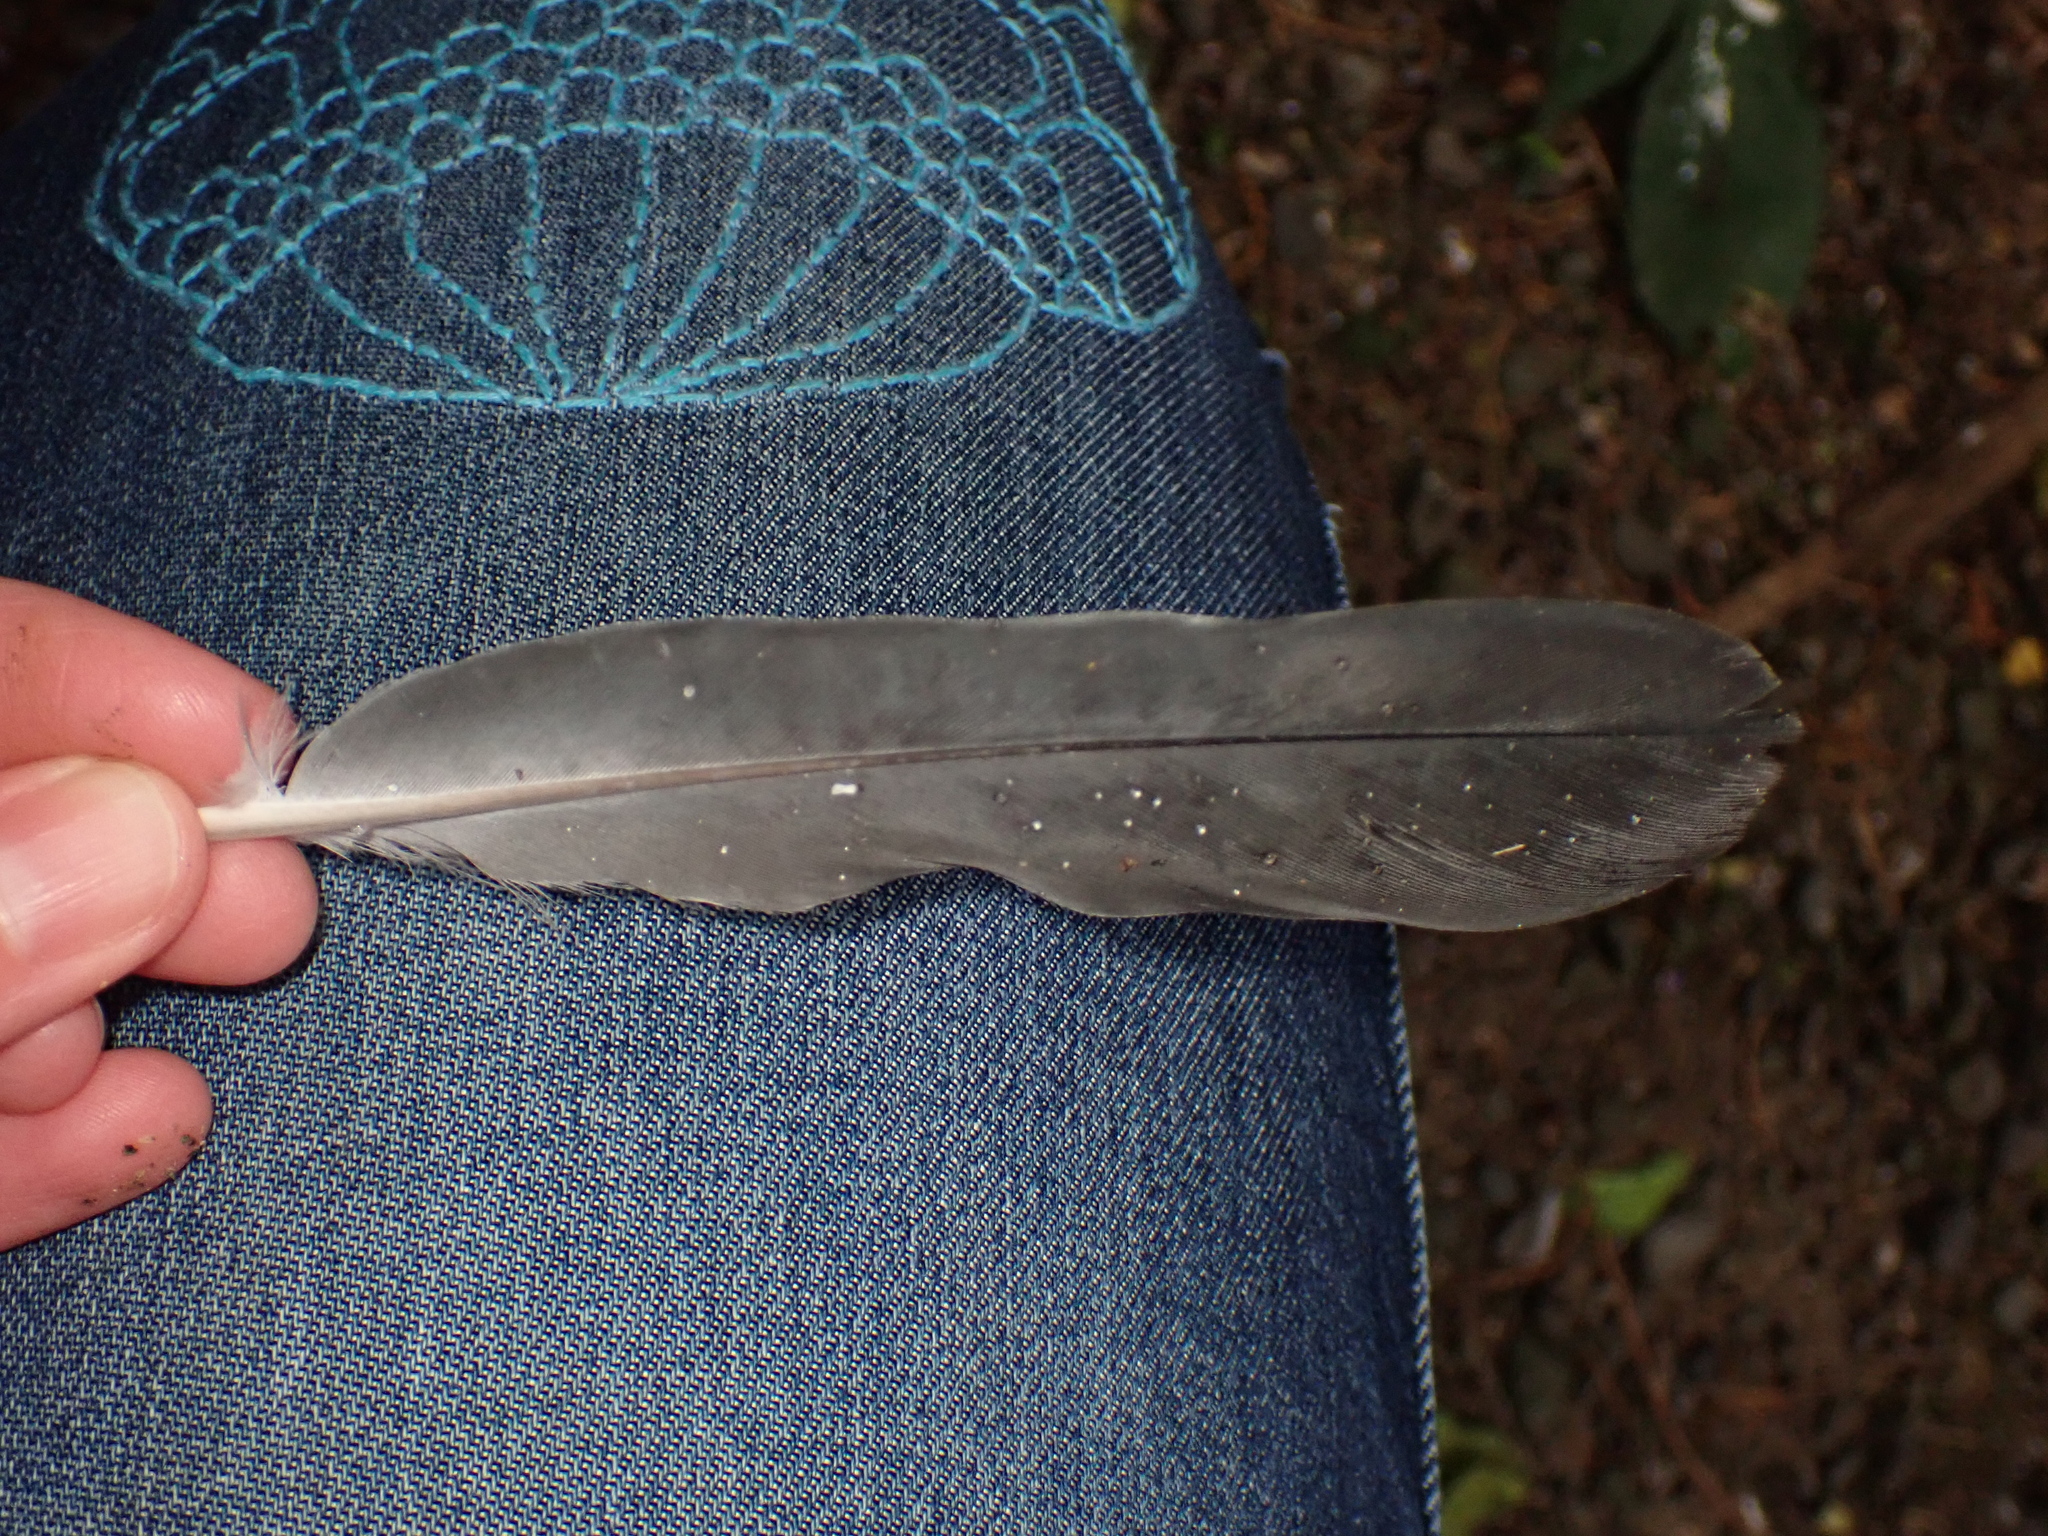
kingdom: Animalia
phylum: Chordata
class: Aves
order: Columbiformes
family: Columbidae
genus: Columba
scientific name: Columba livia
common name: Rock pigeon
